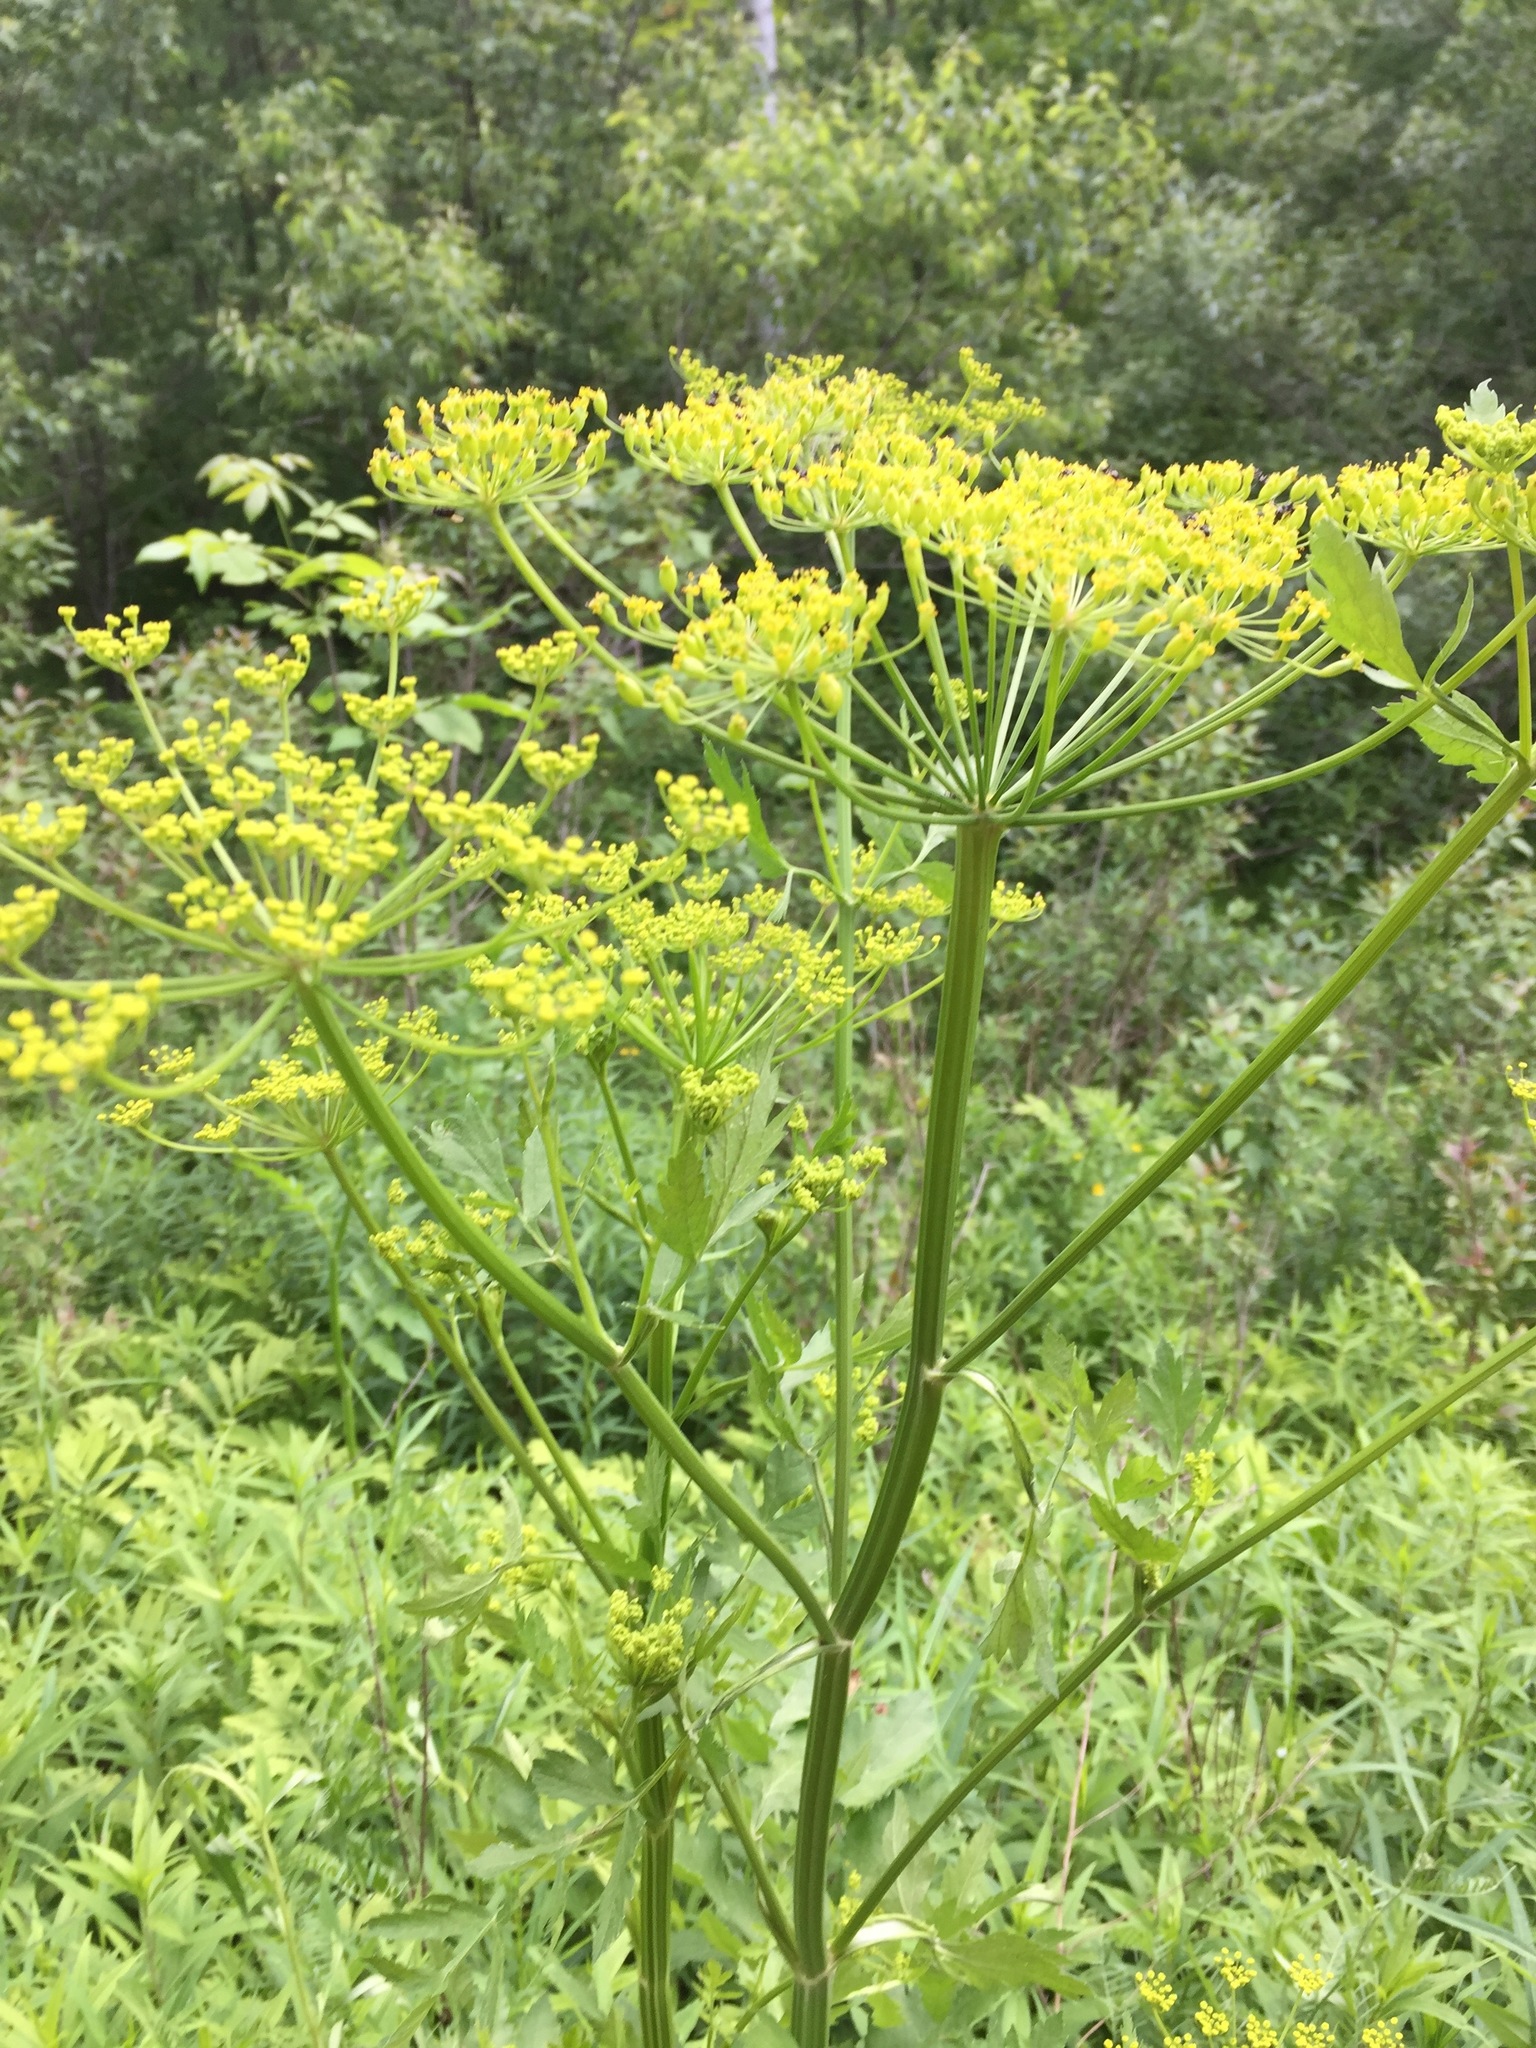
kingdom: Plantae
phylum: Tracheophyta
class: Magnoliopsida
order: Apiales
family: Apiaceae
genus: Pastinaca
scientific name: Pastinaca sativa
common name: Wild parsnip
